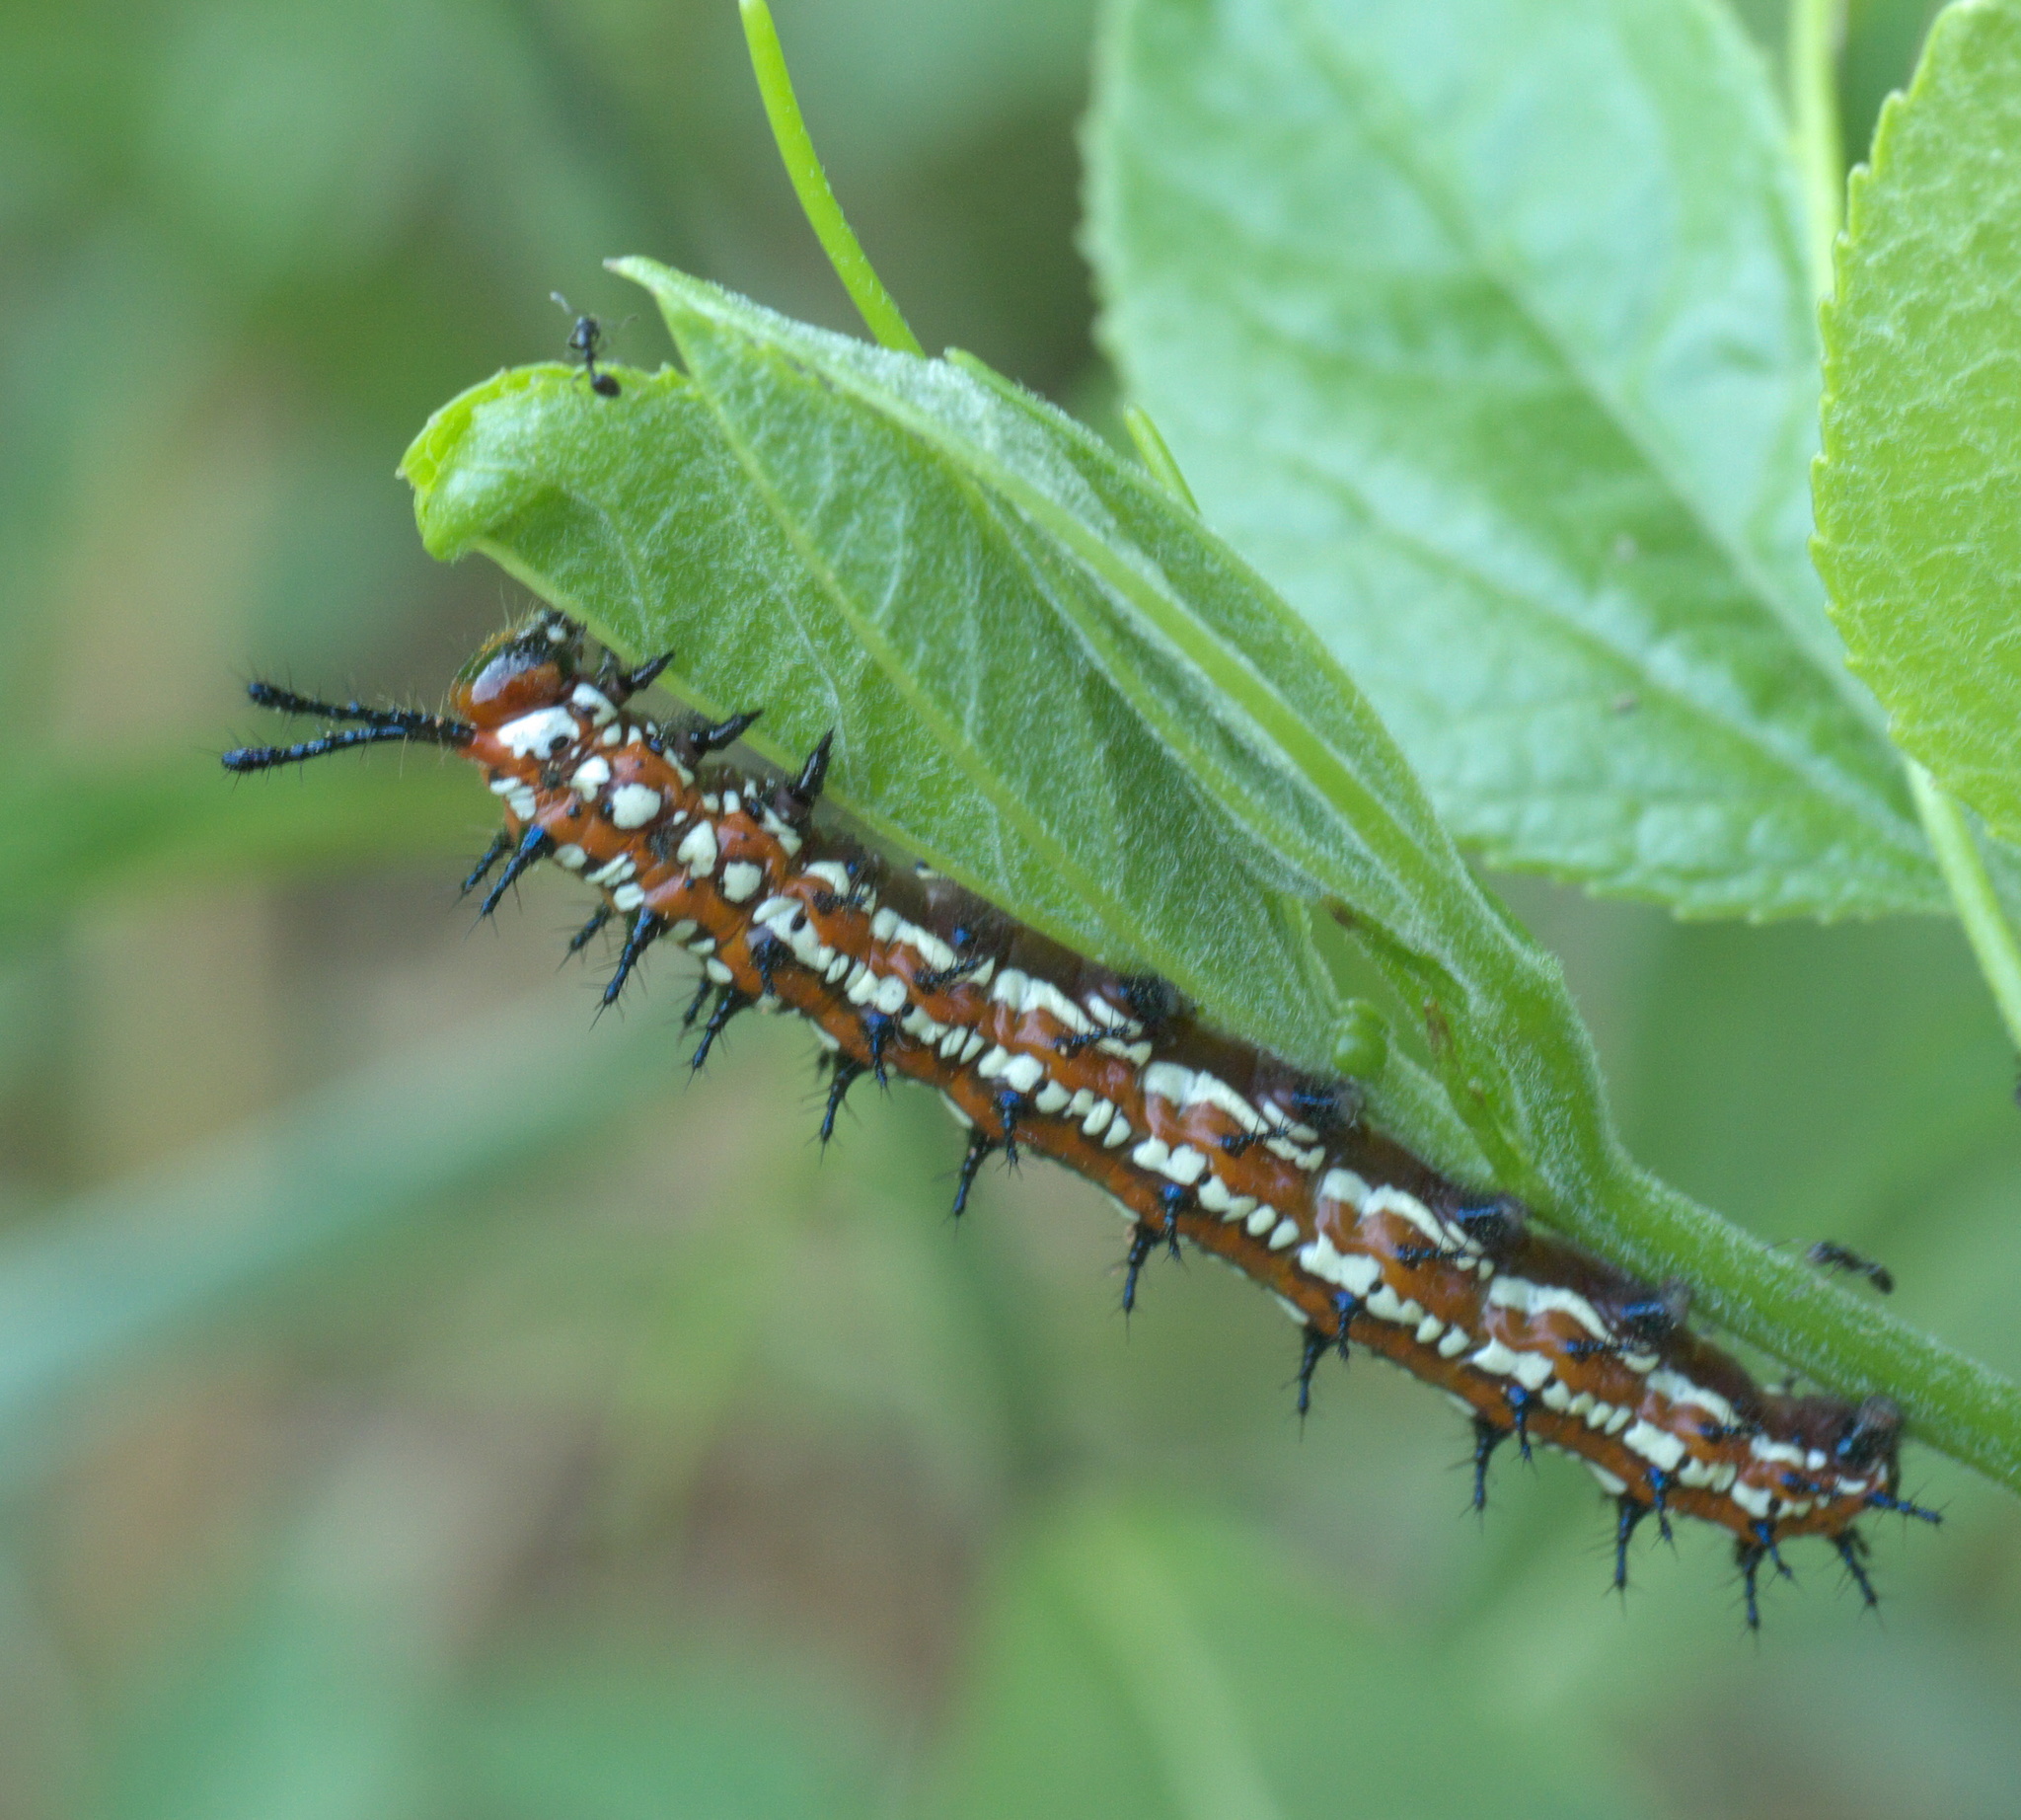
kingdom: Animalia
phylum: Arthropoda
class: Insecta
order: Lepidoptera
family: Nymphalidae
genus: Euptoieta
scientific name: Euptoieta claudia
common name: Variegated fritillary
